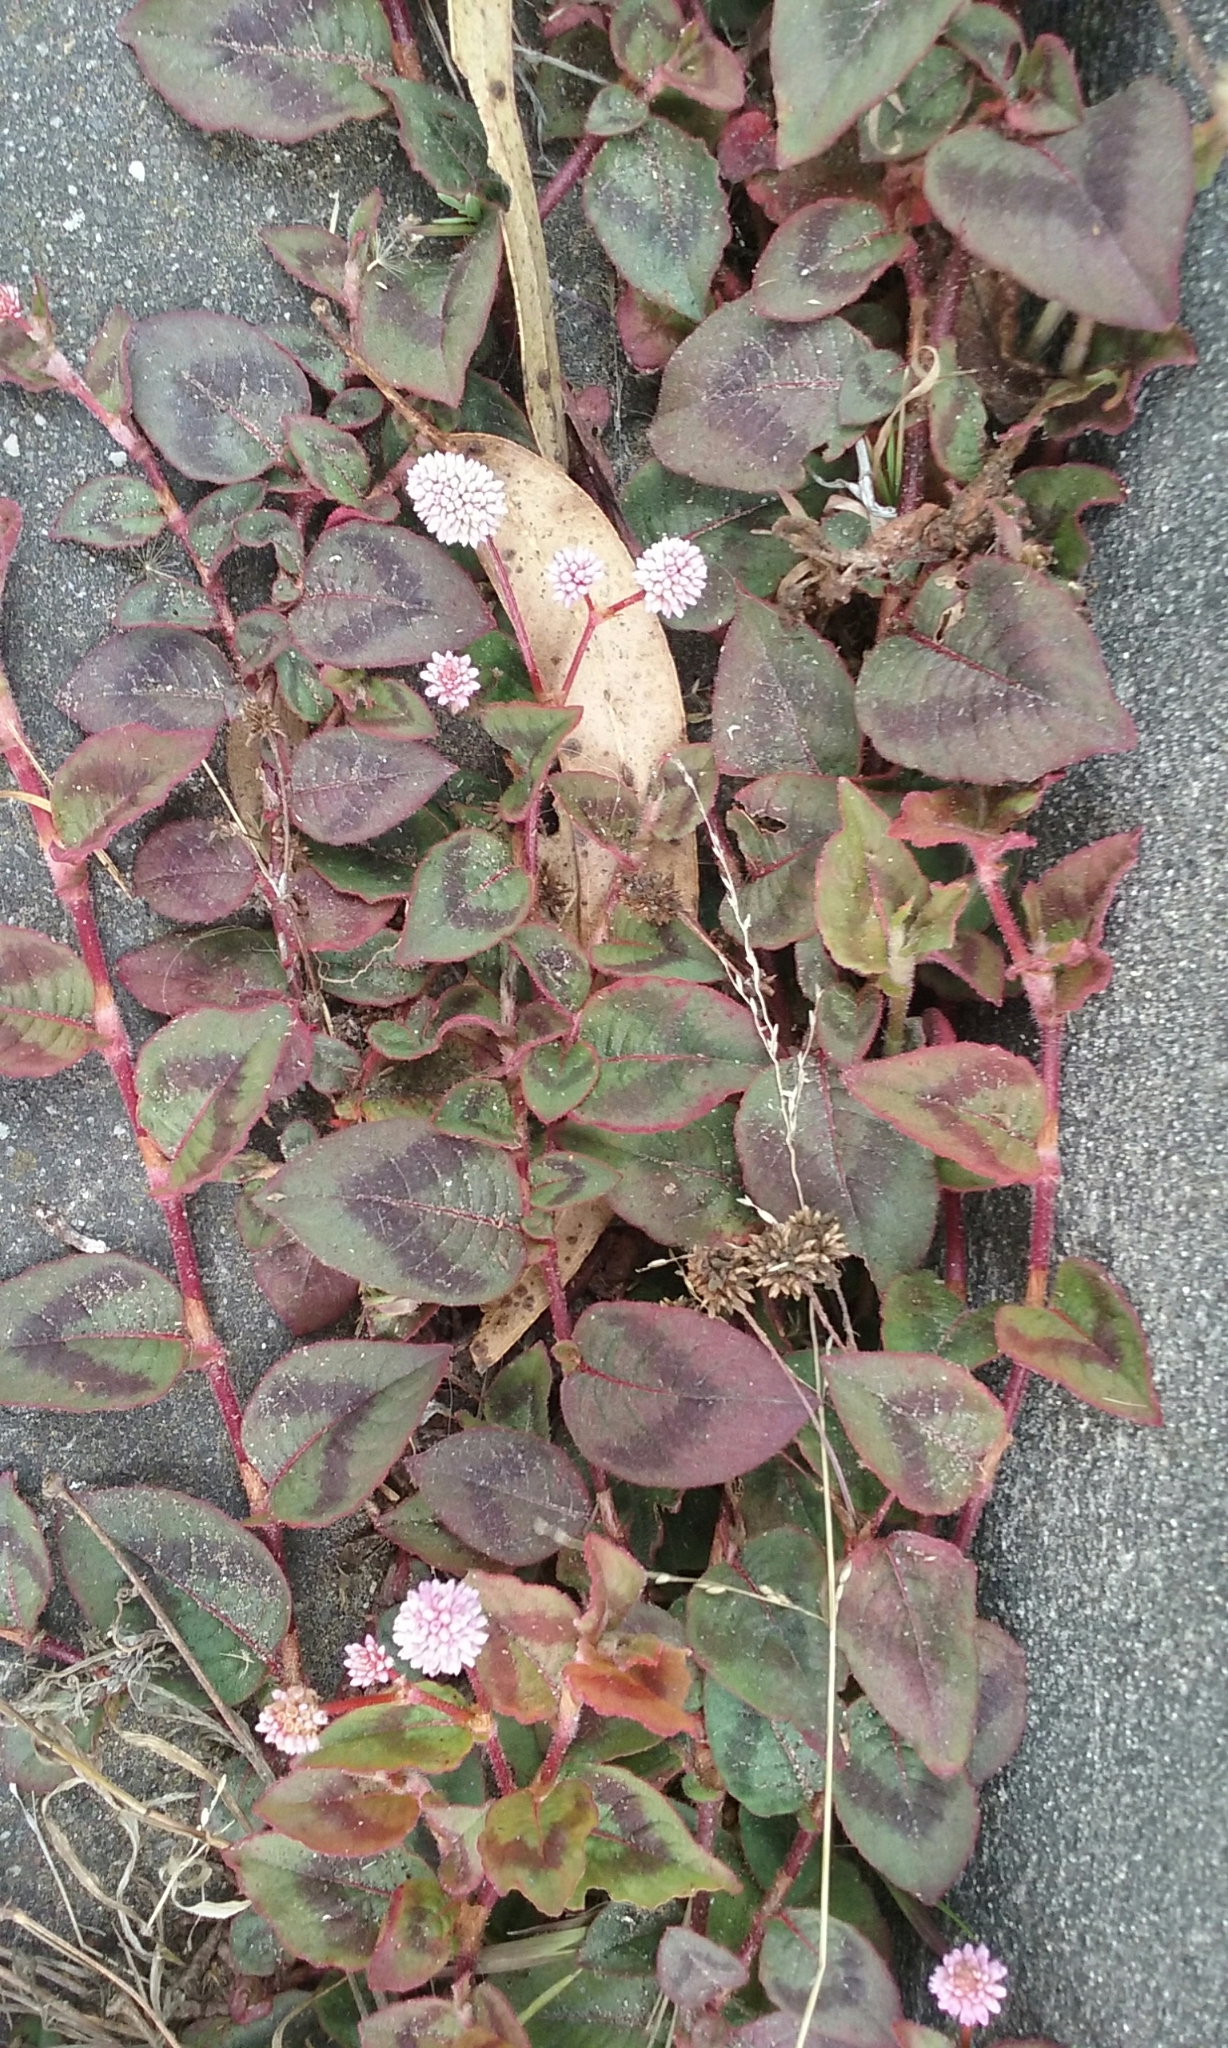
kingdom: Plantae
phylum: Tracheophyta
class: Magnoliopsida
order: Caryophyllales
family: Polygonaceae
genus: Persicaria
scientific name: Persicaria capitata
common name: Pinkhead smartweed
